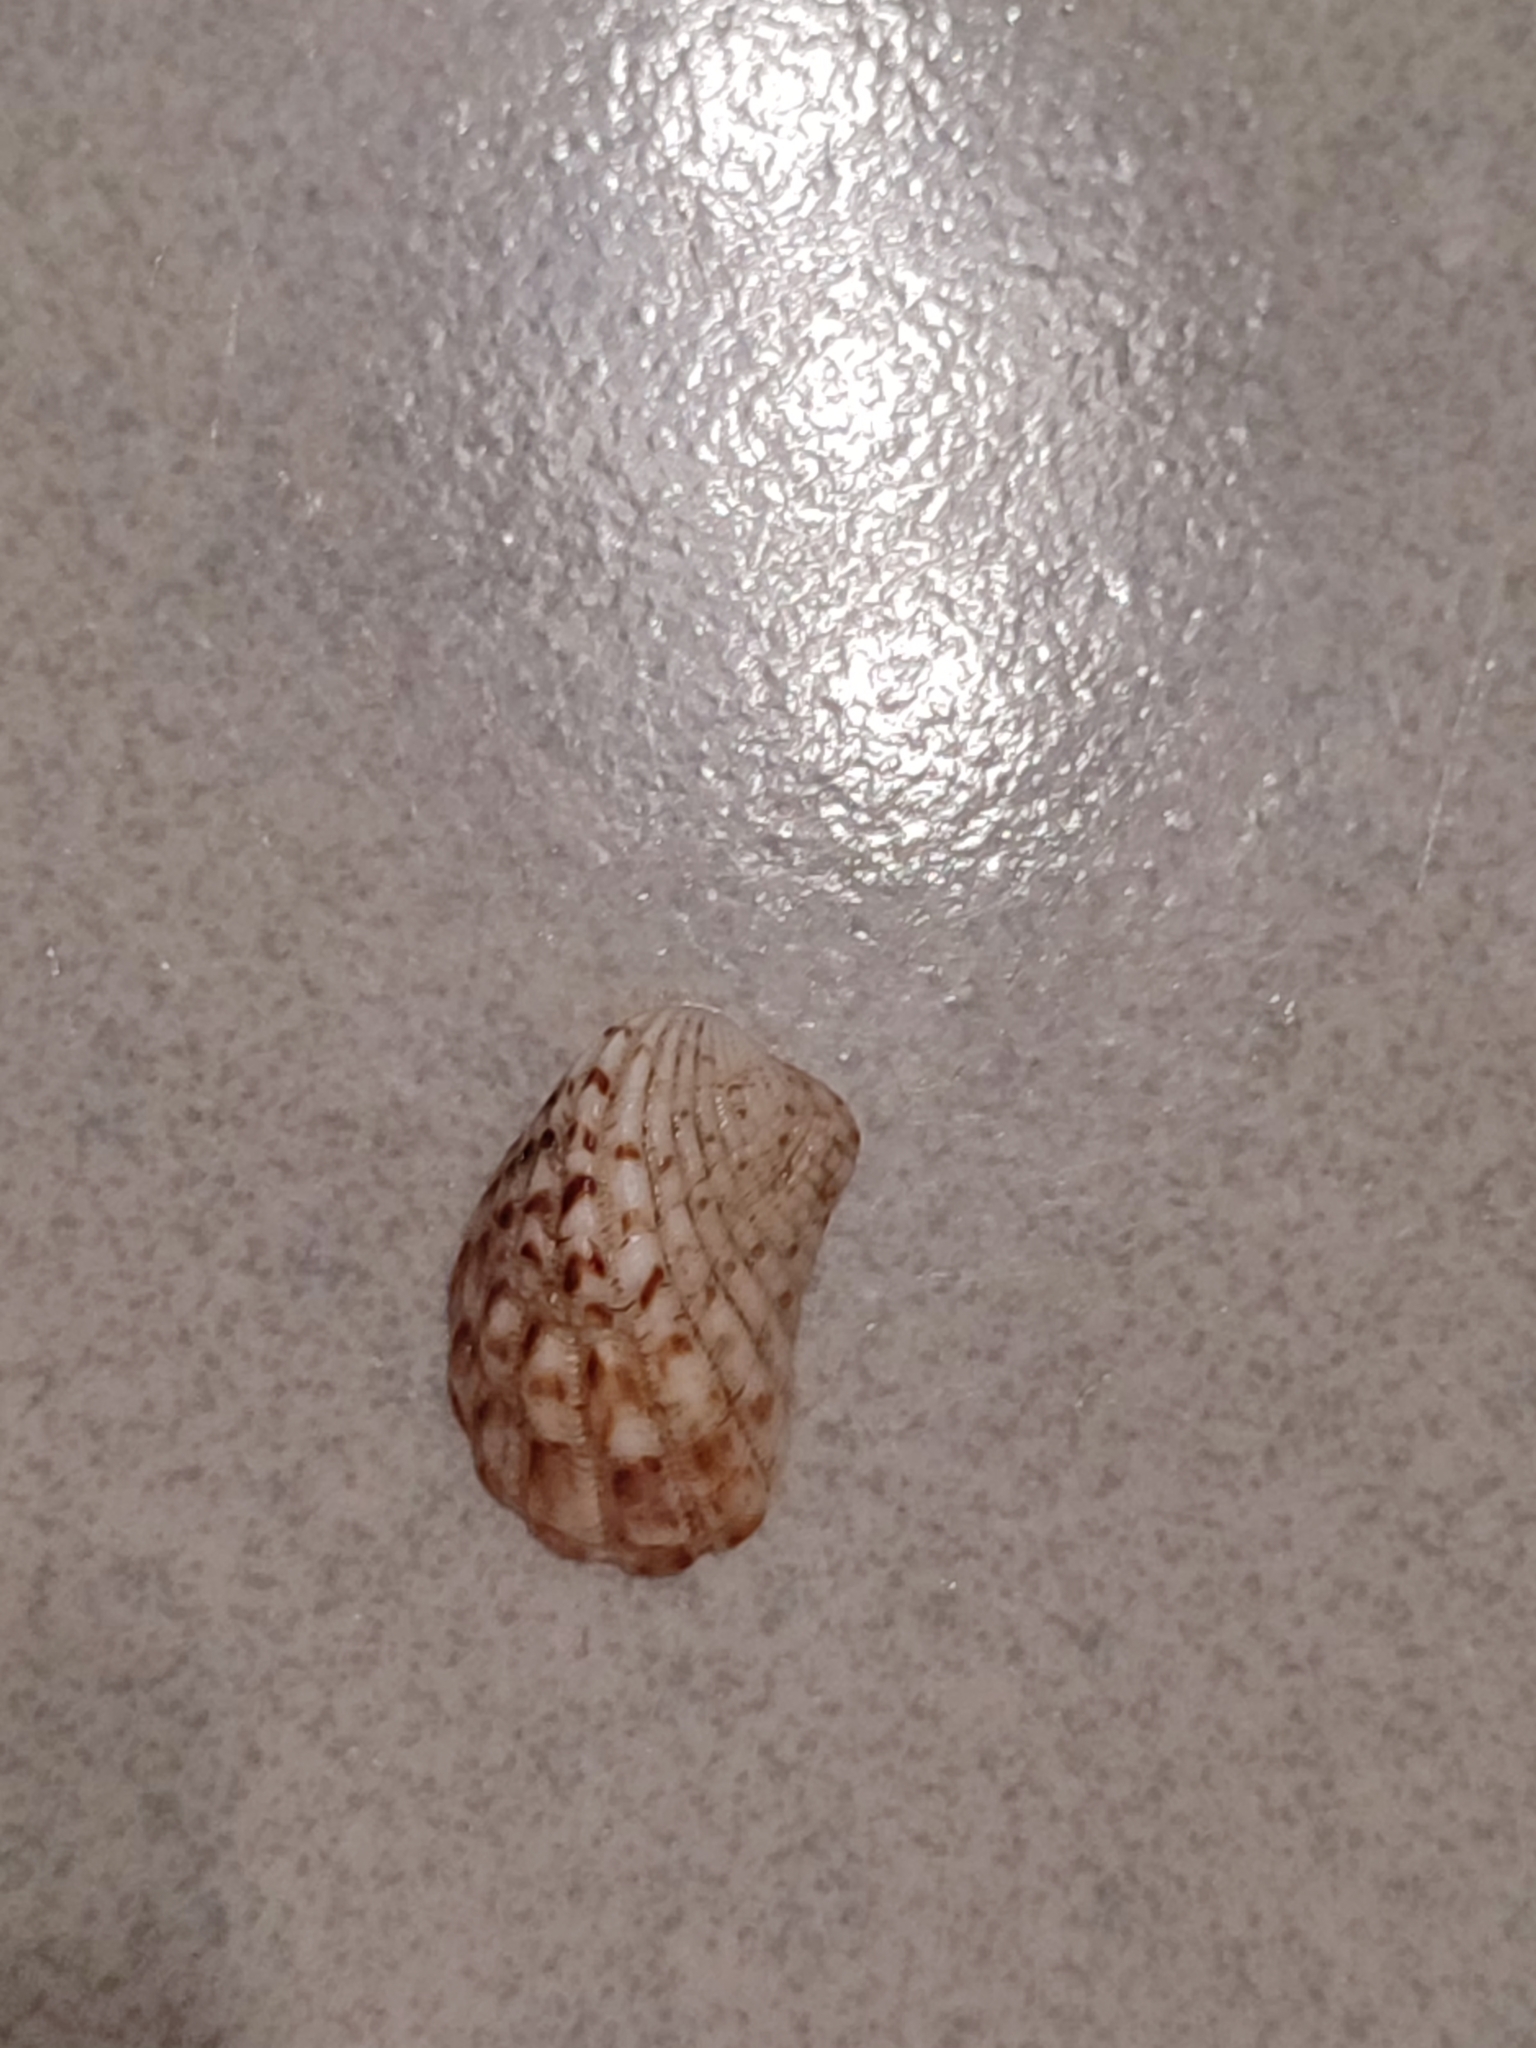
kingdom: Animalia
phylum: Mollusca
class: Bivalvia
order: Carditida
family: Carditidae
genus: Cardita
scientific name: Cardita variegata
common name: Rectangular false cockle
